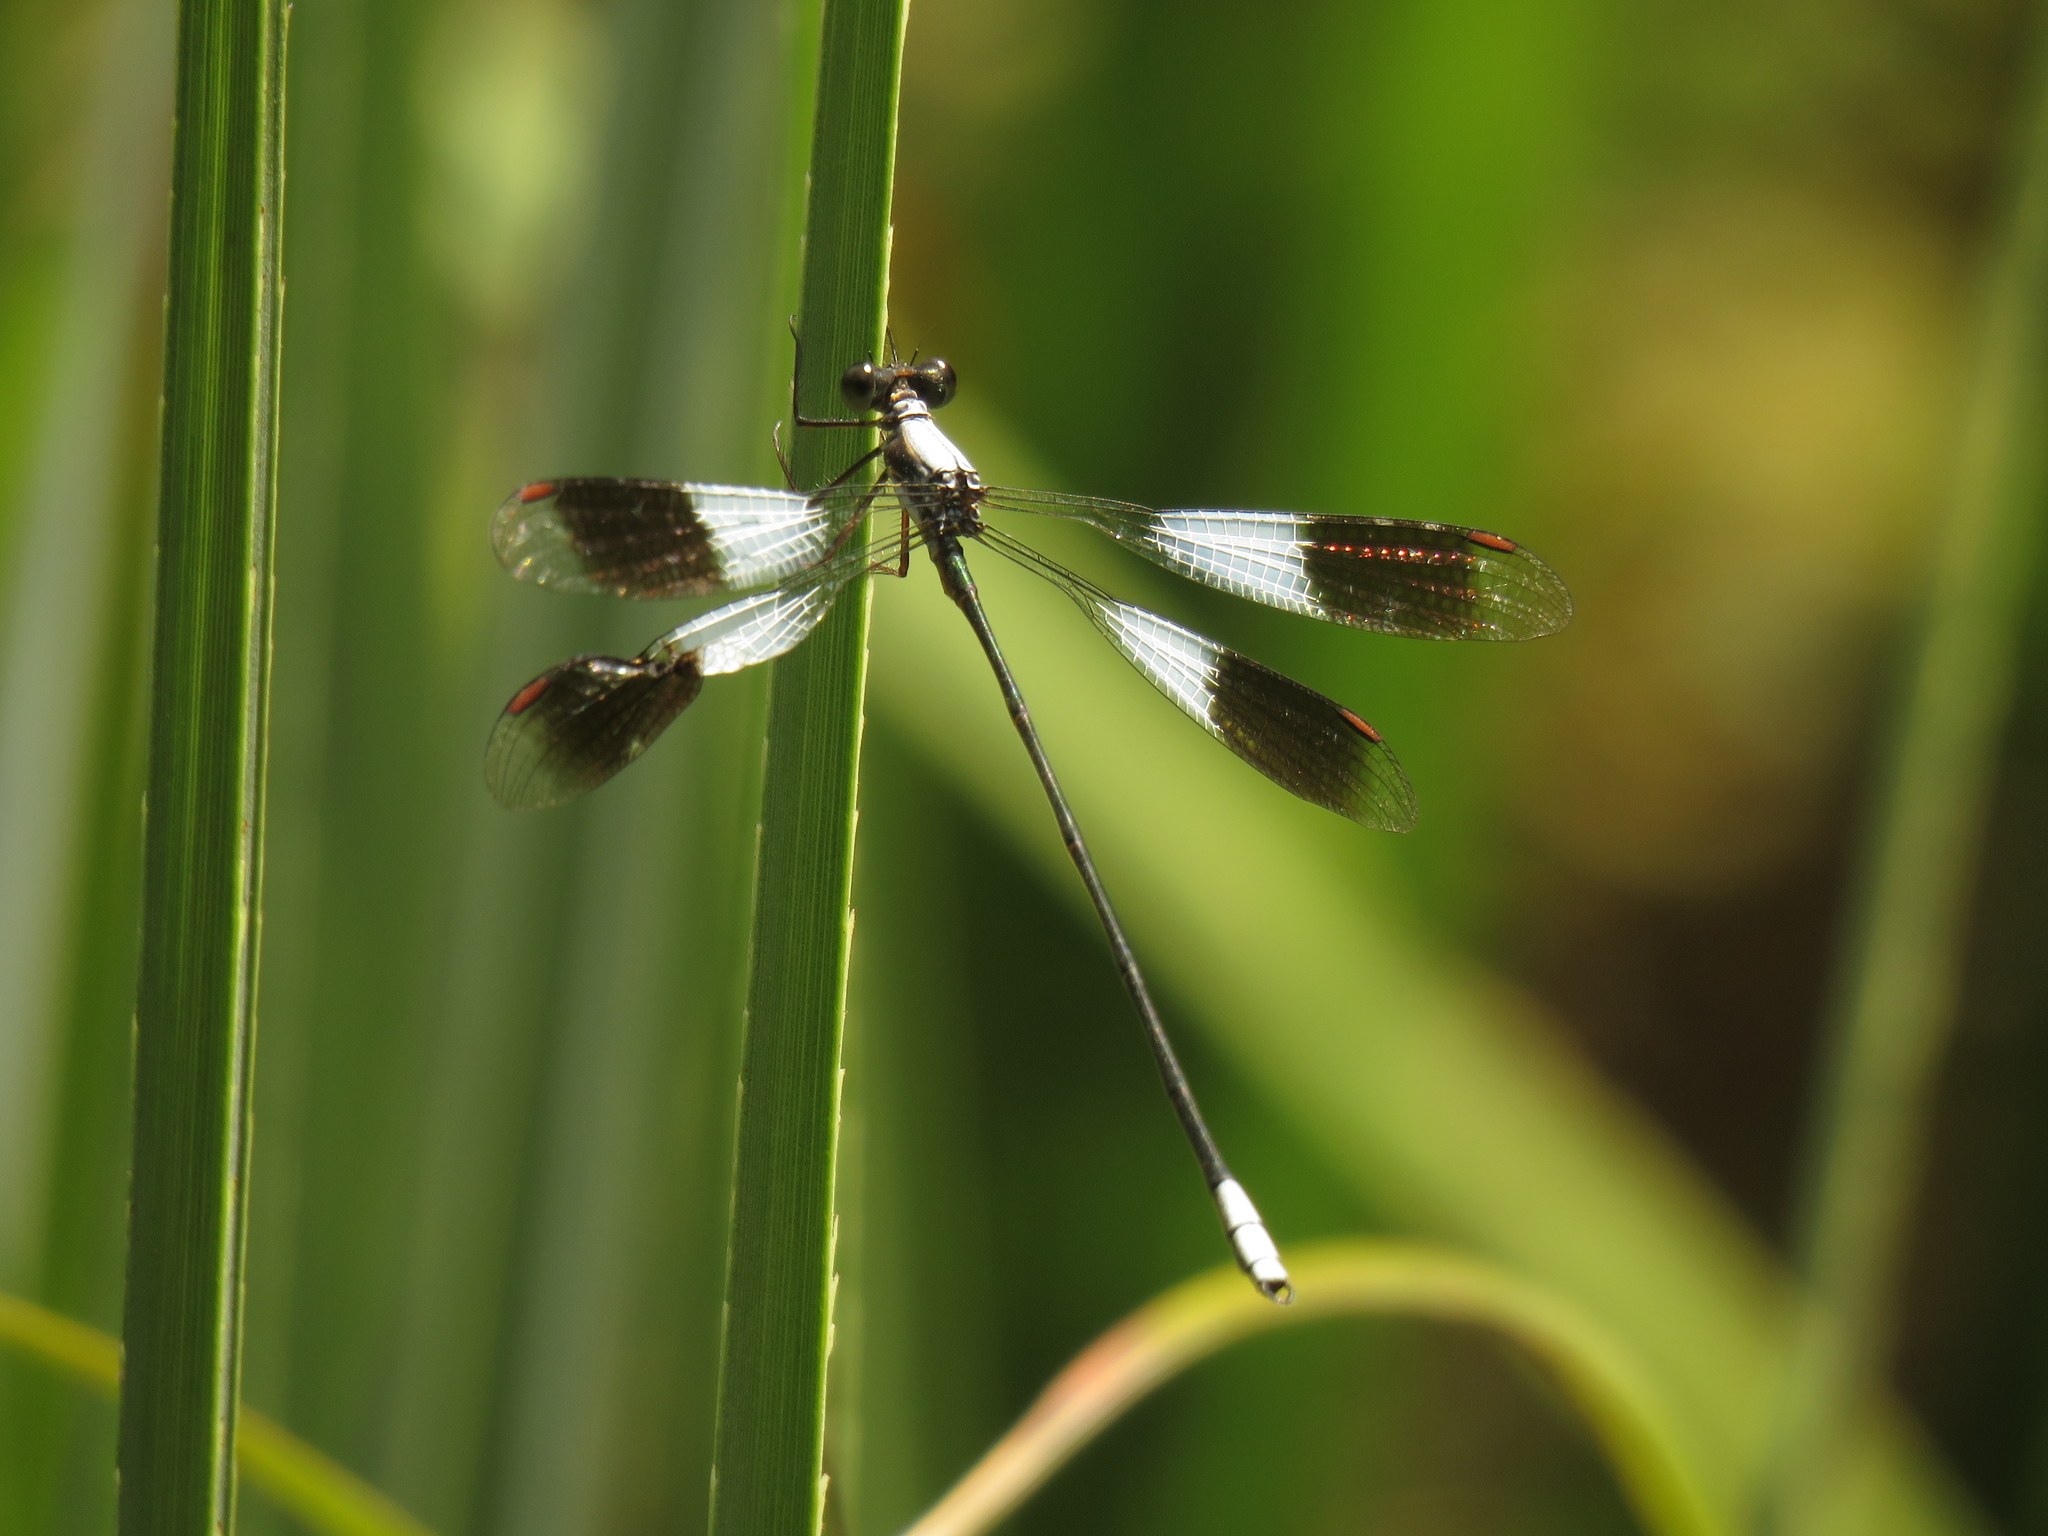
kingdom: Animalia
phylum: Arthropoda
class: Insecta
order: Odonata
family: Synlestidae
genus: Chlorolestes
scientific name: Chlorolestes umbratus
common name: White malachite
